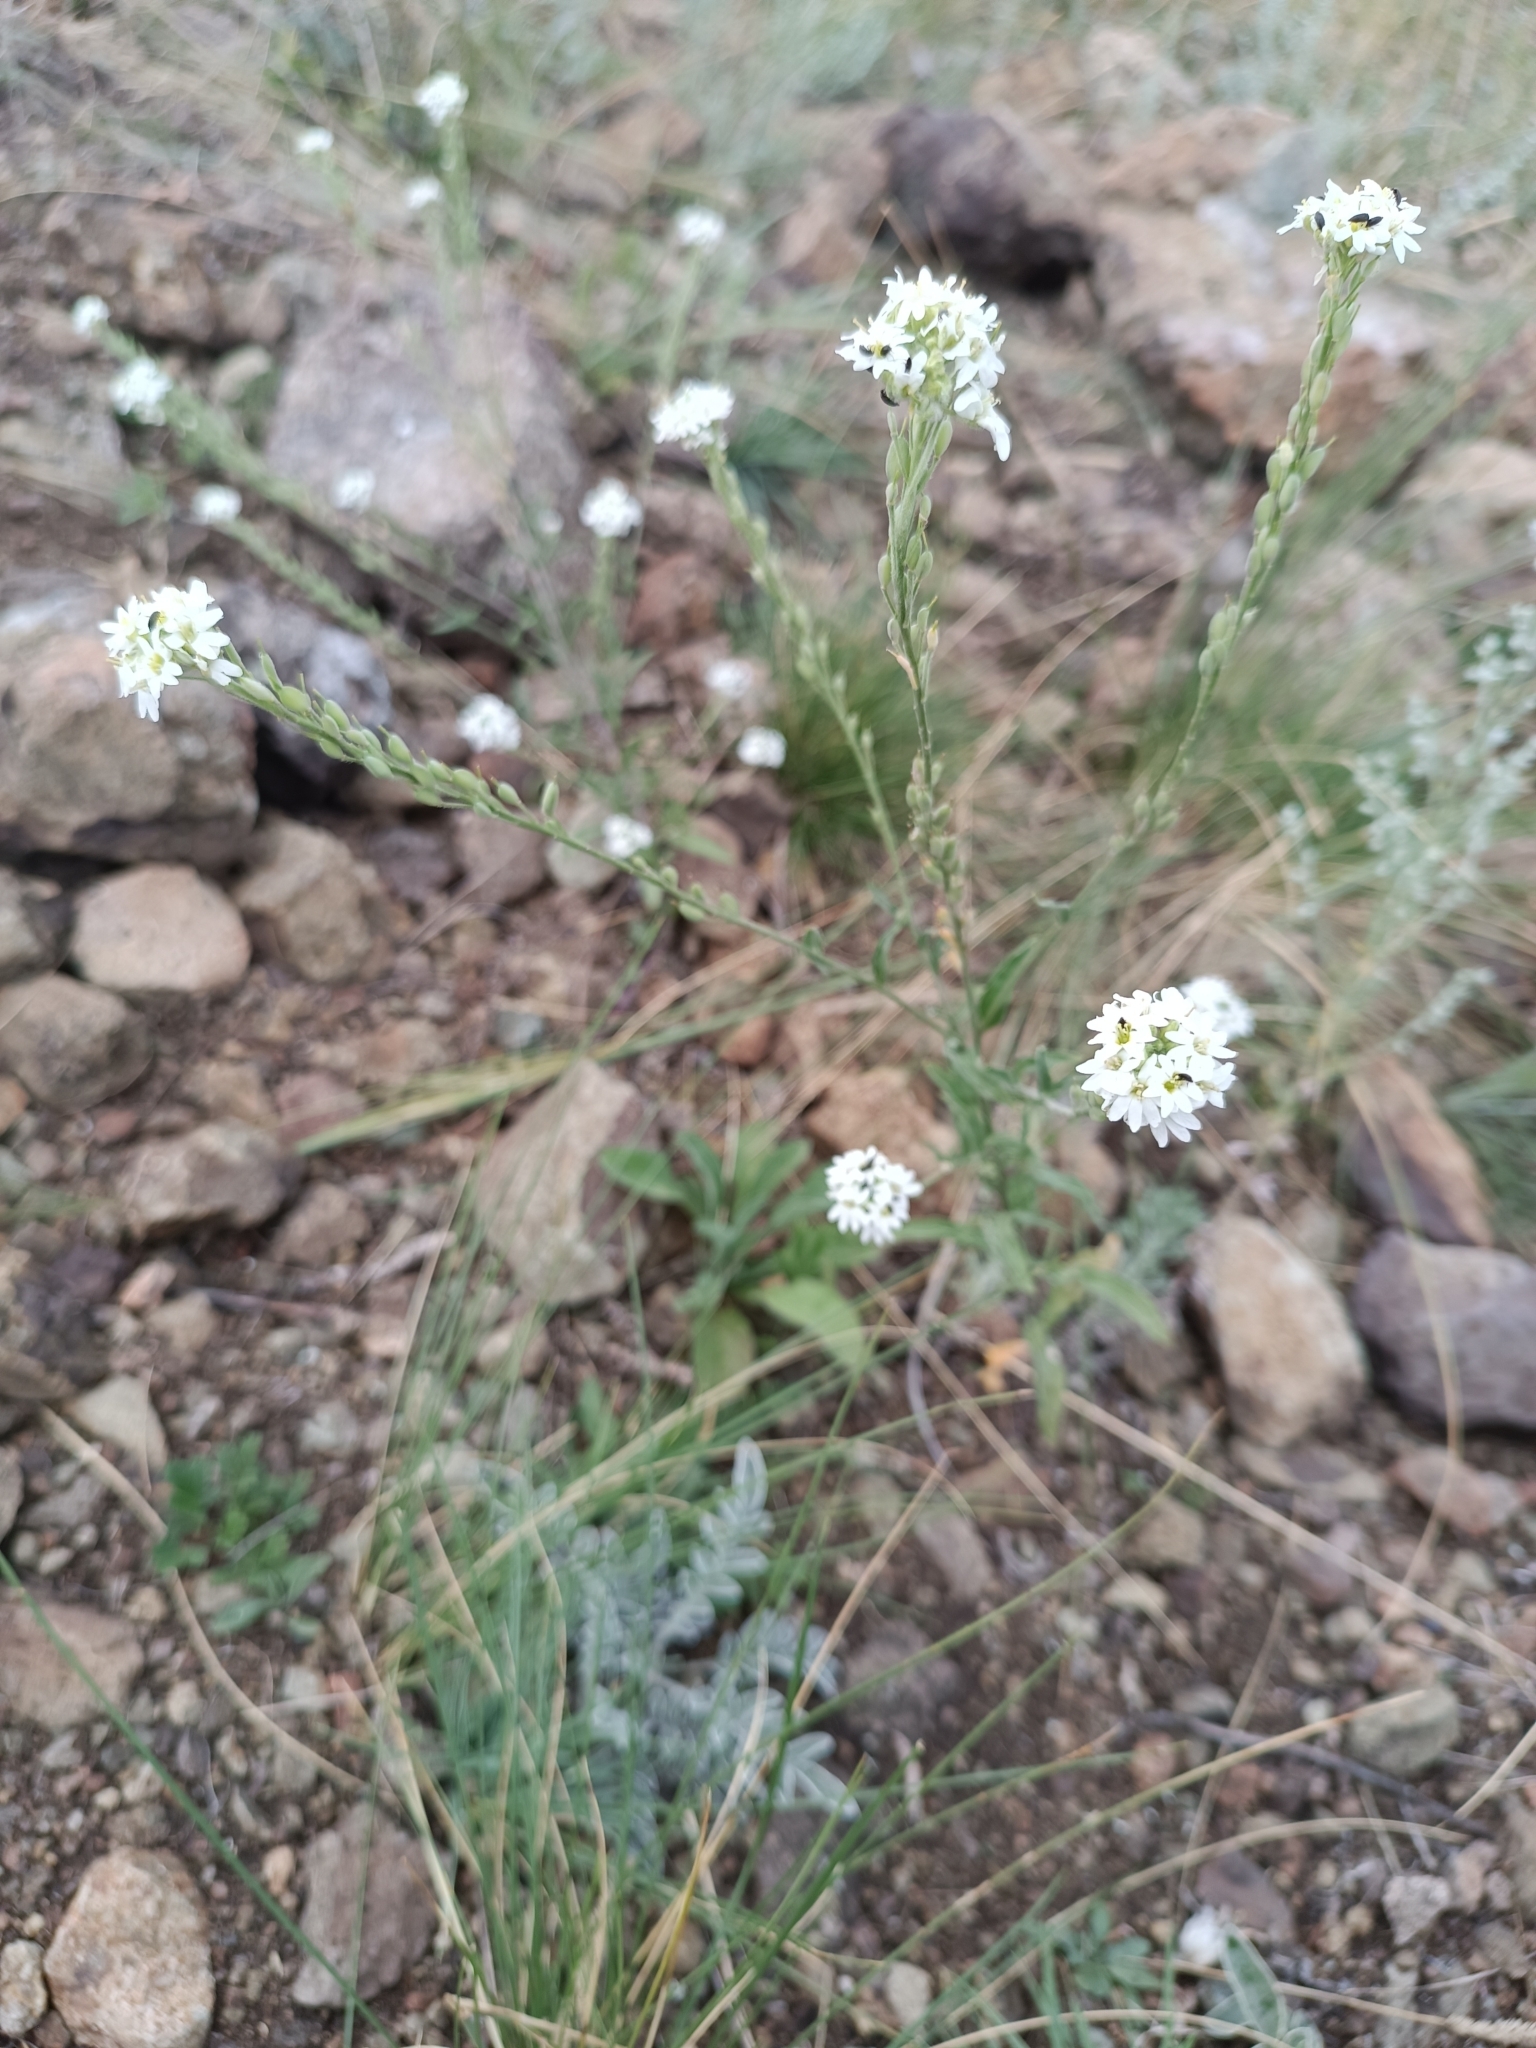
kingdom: Plantae
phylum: Tracheophyta
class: Magnoliopsida
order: Brassicales
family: Brassicaceae
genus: Berteroa
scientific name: Berteroa incana
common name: Hoary alison
